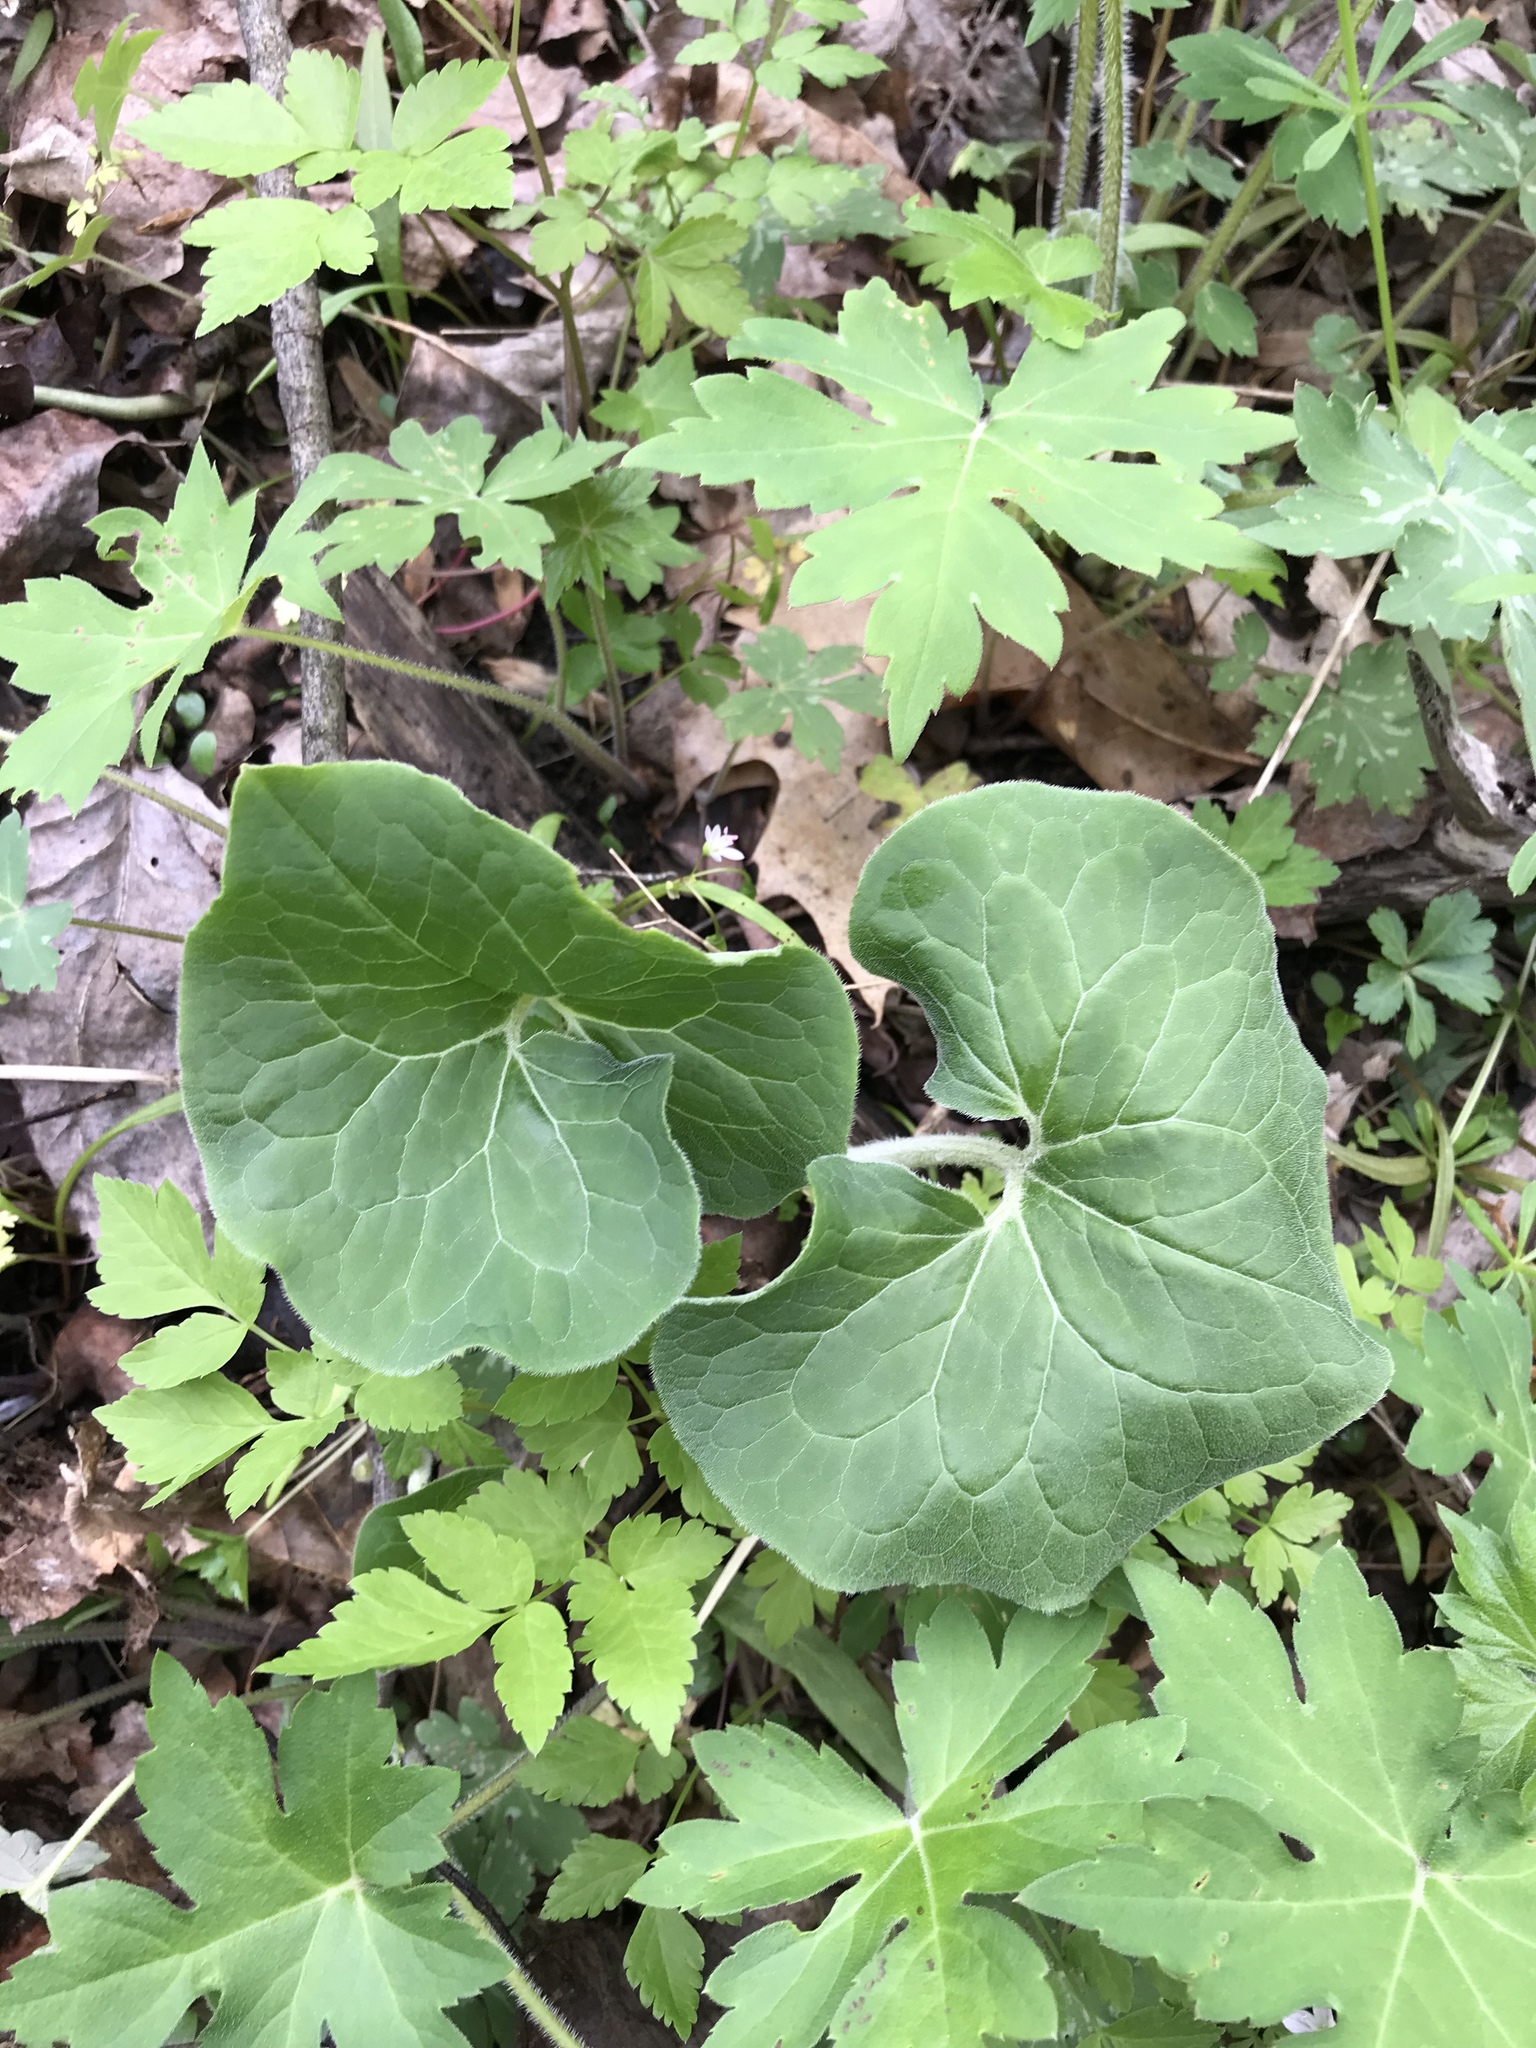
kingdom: Plantae
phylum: Tracheophyta
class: Magnoliopsida
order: Piperales
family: Aristolochiaceae
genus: Asarum
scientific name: Asarum canadense
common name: Wild ginger
